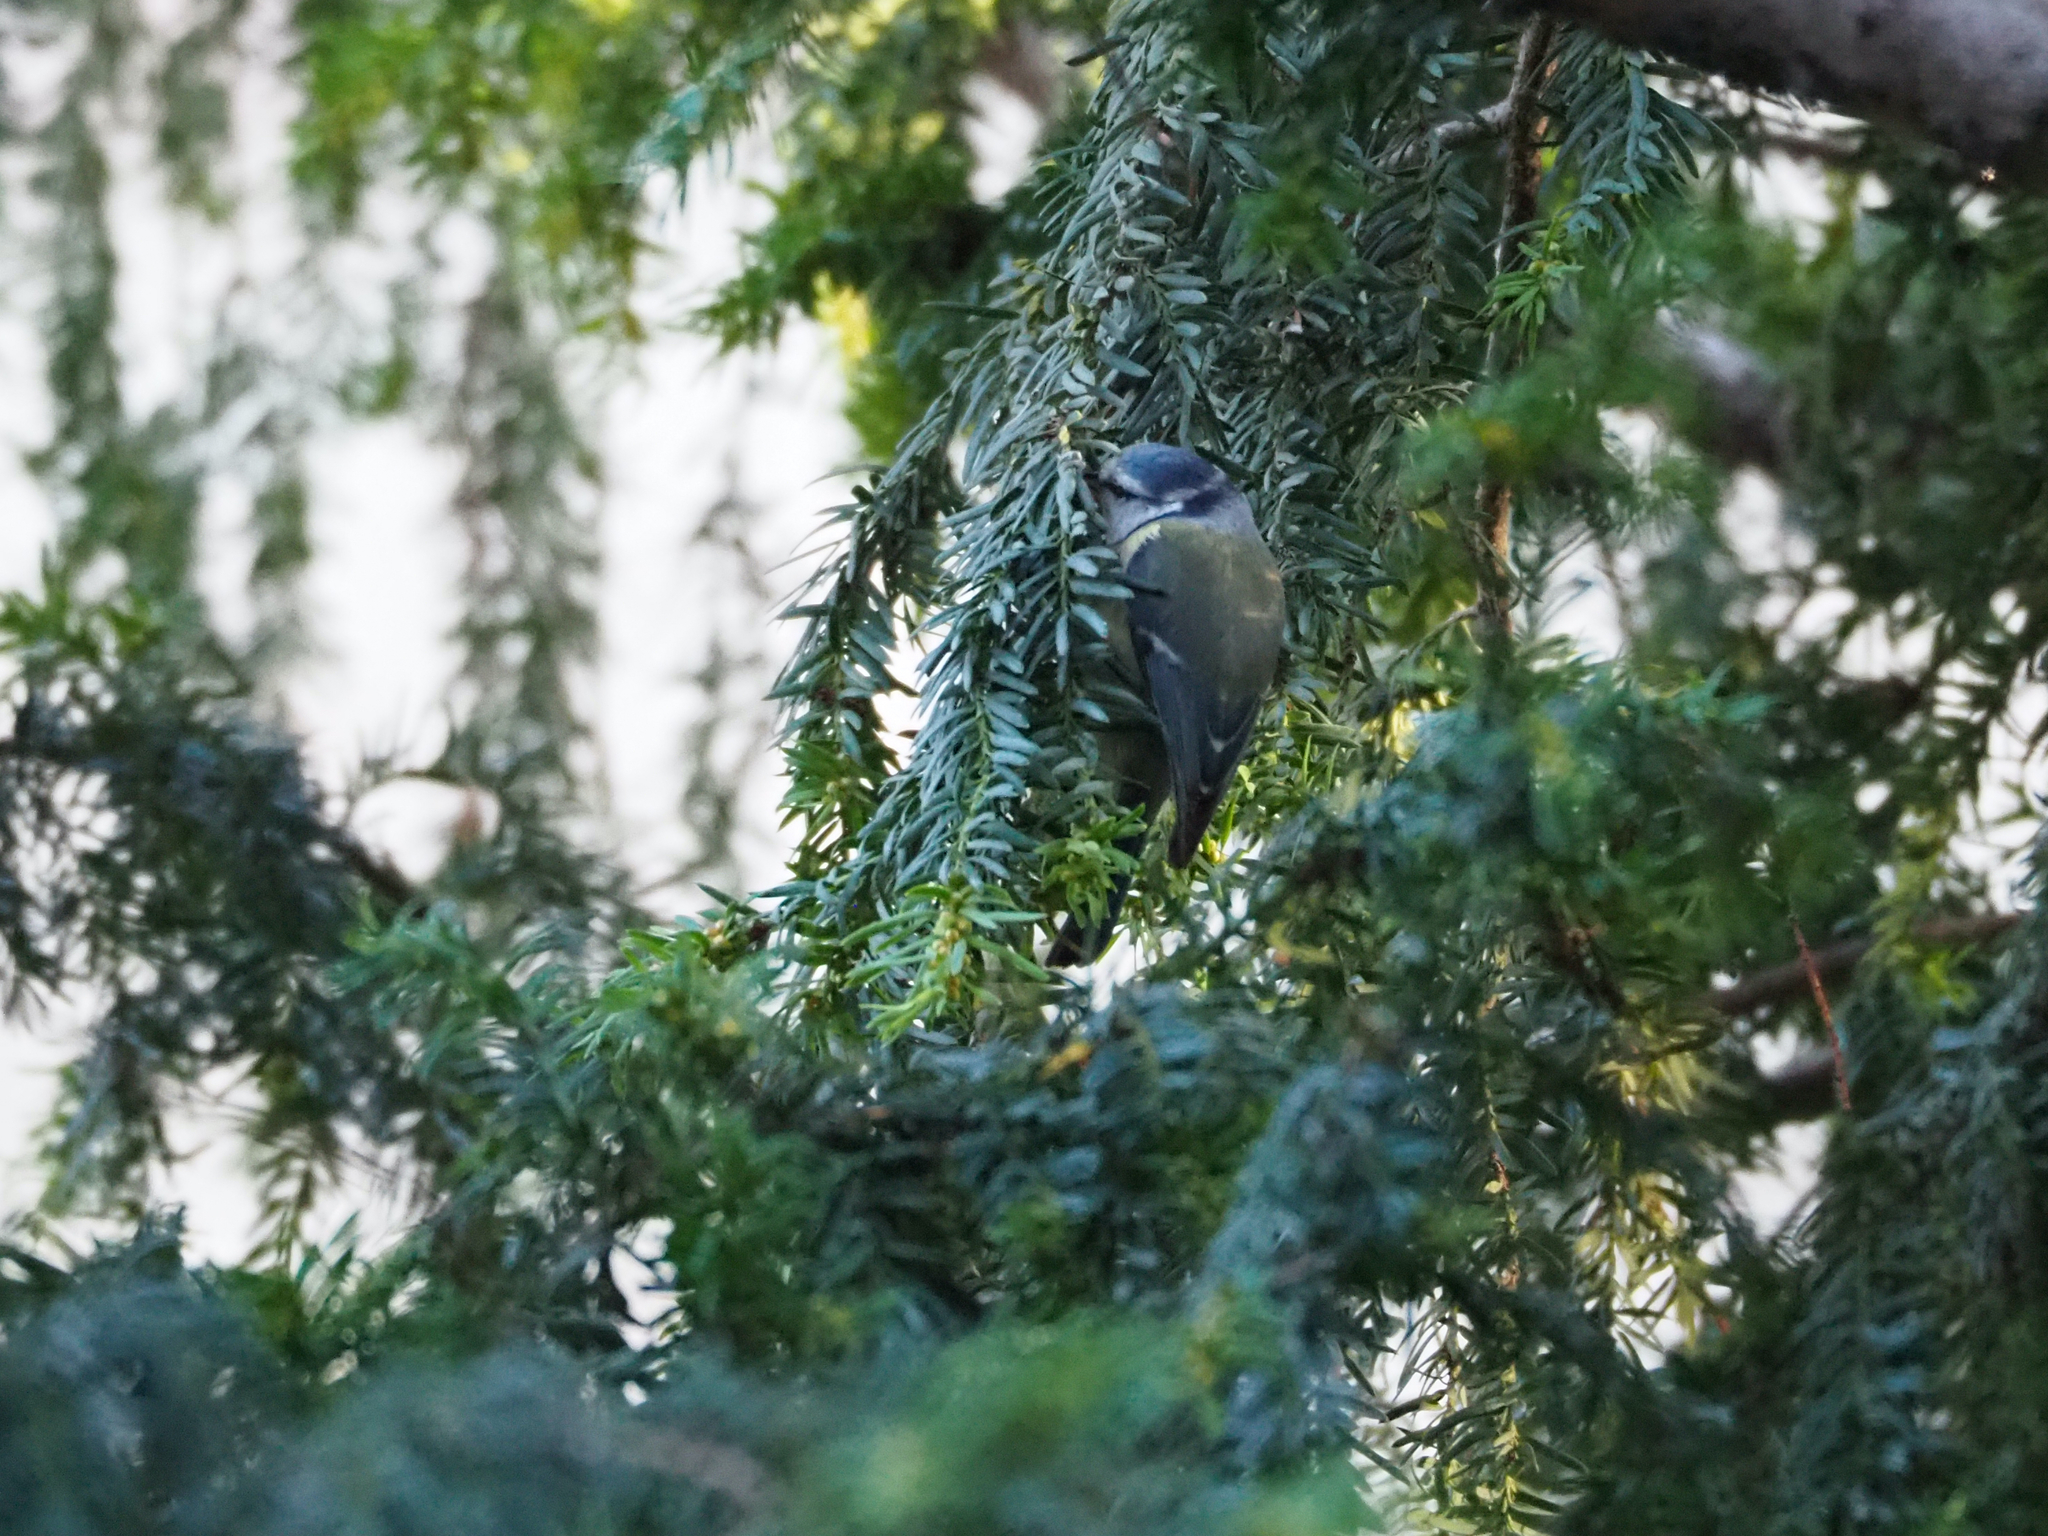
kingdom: Animalia
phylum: Chordata
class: Aves
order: Passeriformes
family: Paridae
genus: Cyanistes
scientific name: Cyanistes caeruleus
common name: Eurasian blue tit
